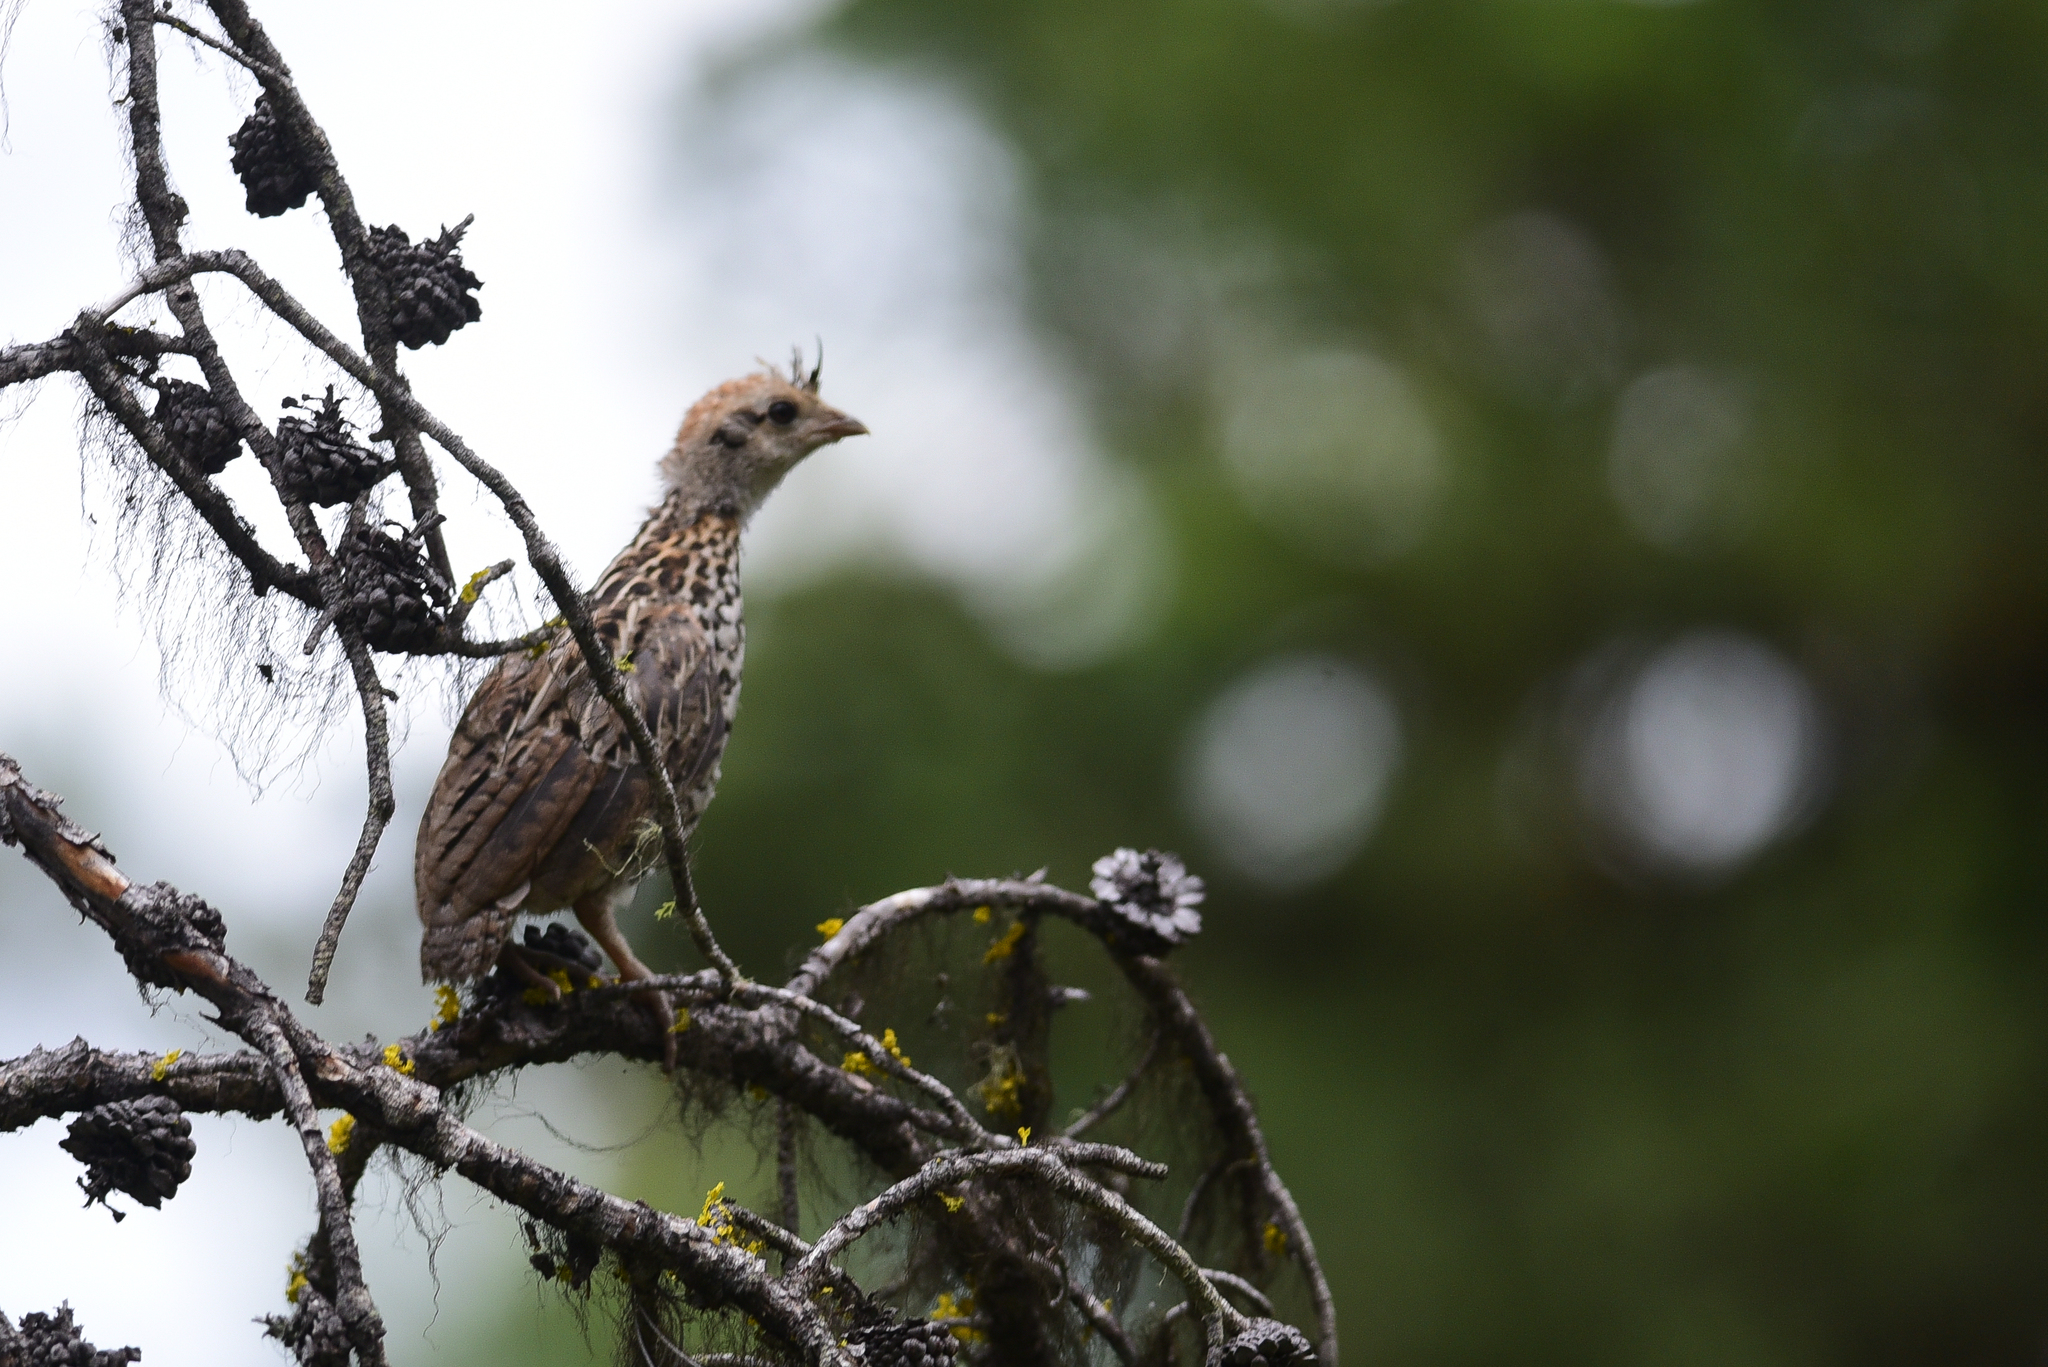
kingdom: Animalia
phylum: Chordata
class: Aves
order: Galliformes
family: Phasianidae
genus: Bonasa
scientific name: Bonasa umbellus
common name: Ruffed grouse
